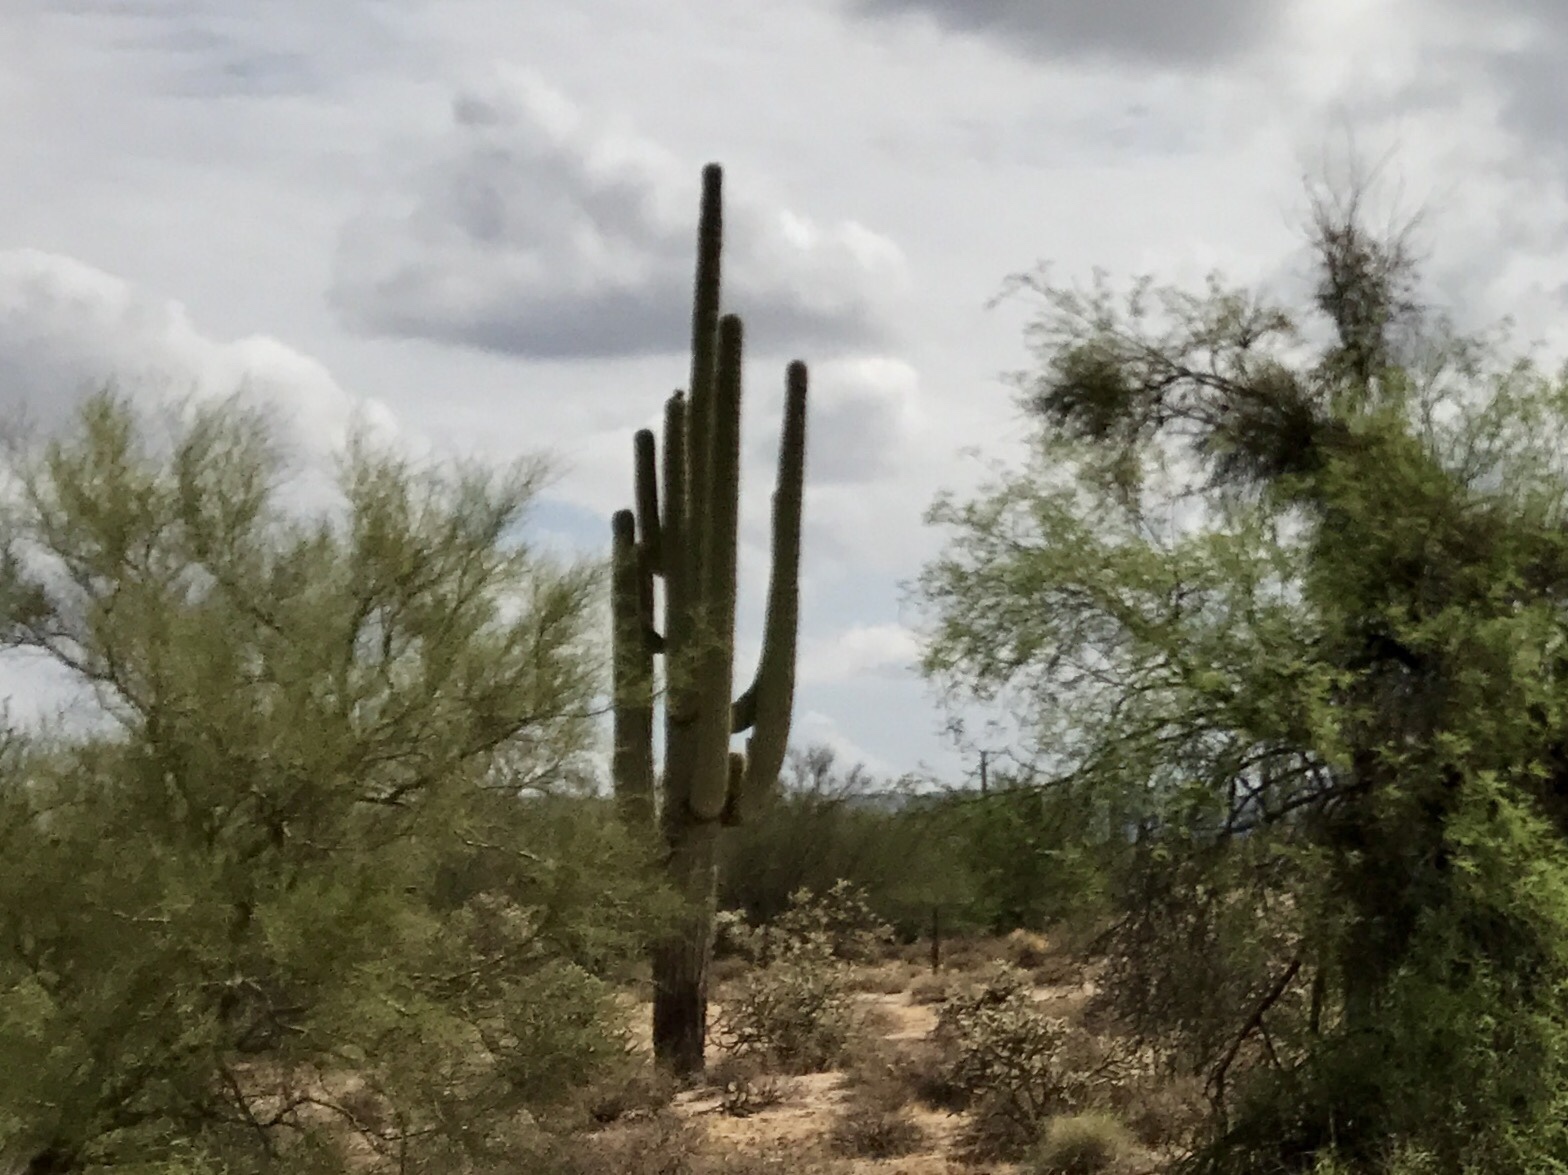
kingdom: Plantae
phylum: Tracheophyta
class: Magnoliopsida
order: Caryophyllales
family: Cactaceae
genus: Carnegiea
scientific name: Carnegiea gigantea
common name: Saguaro
